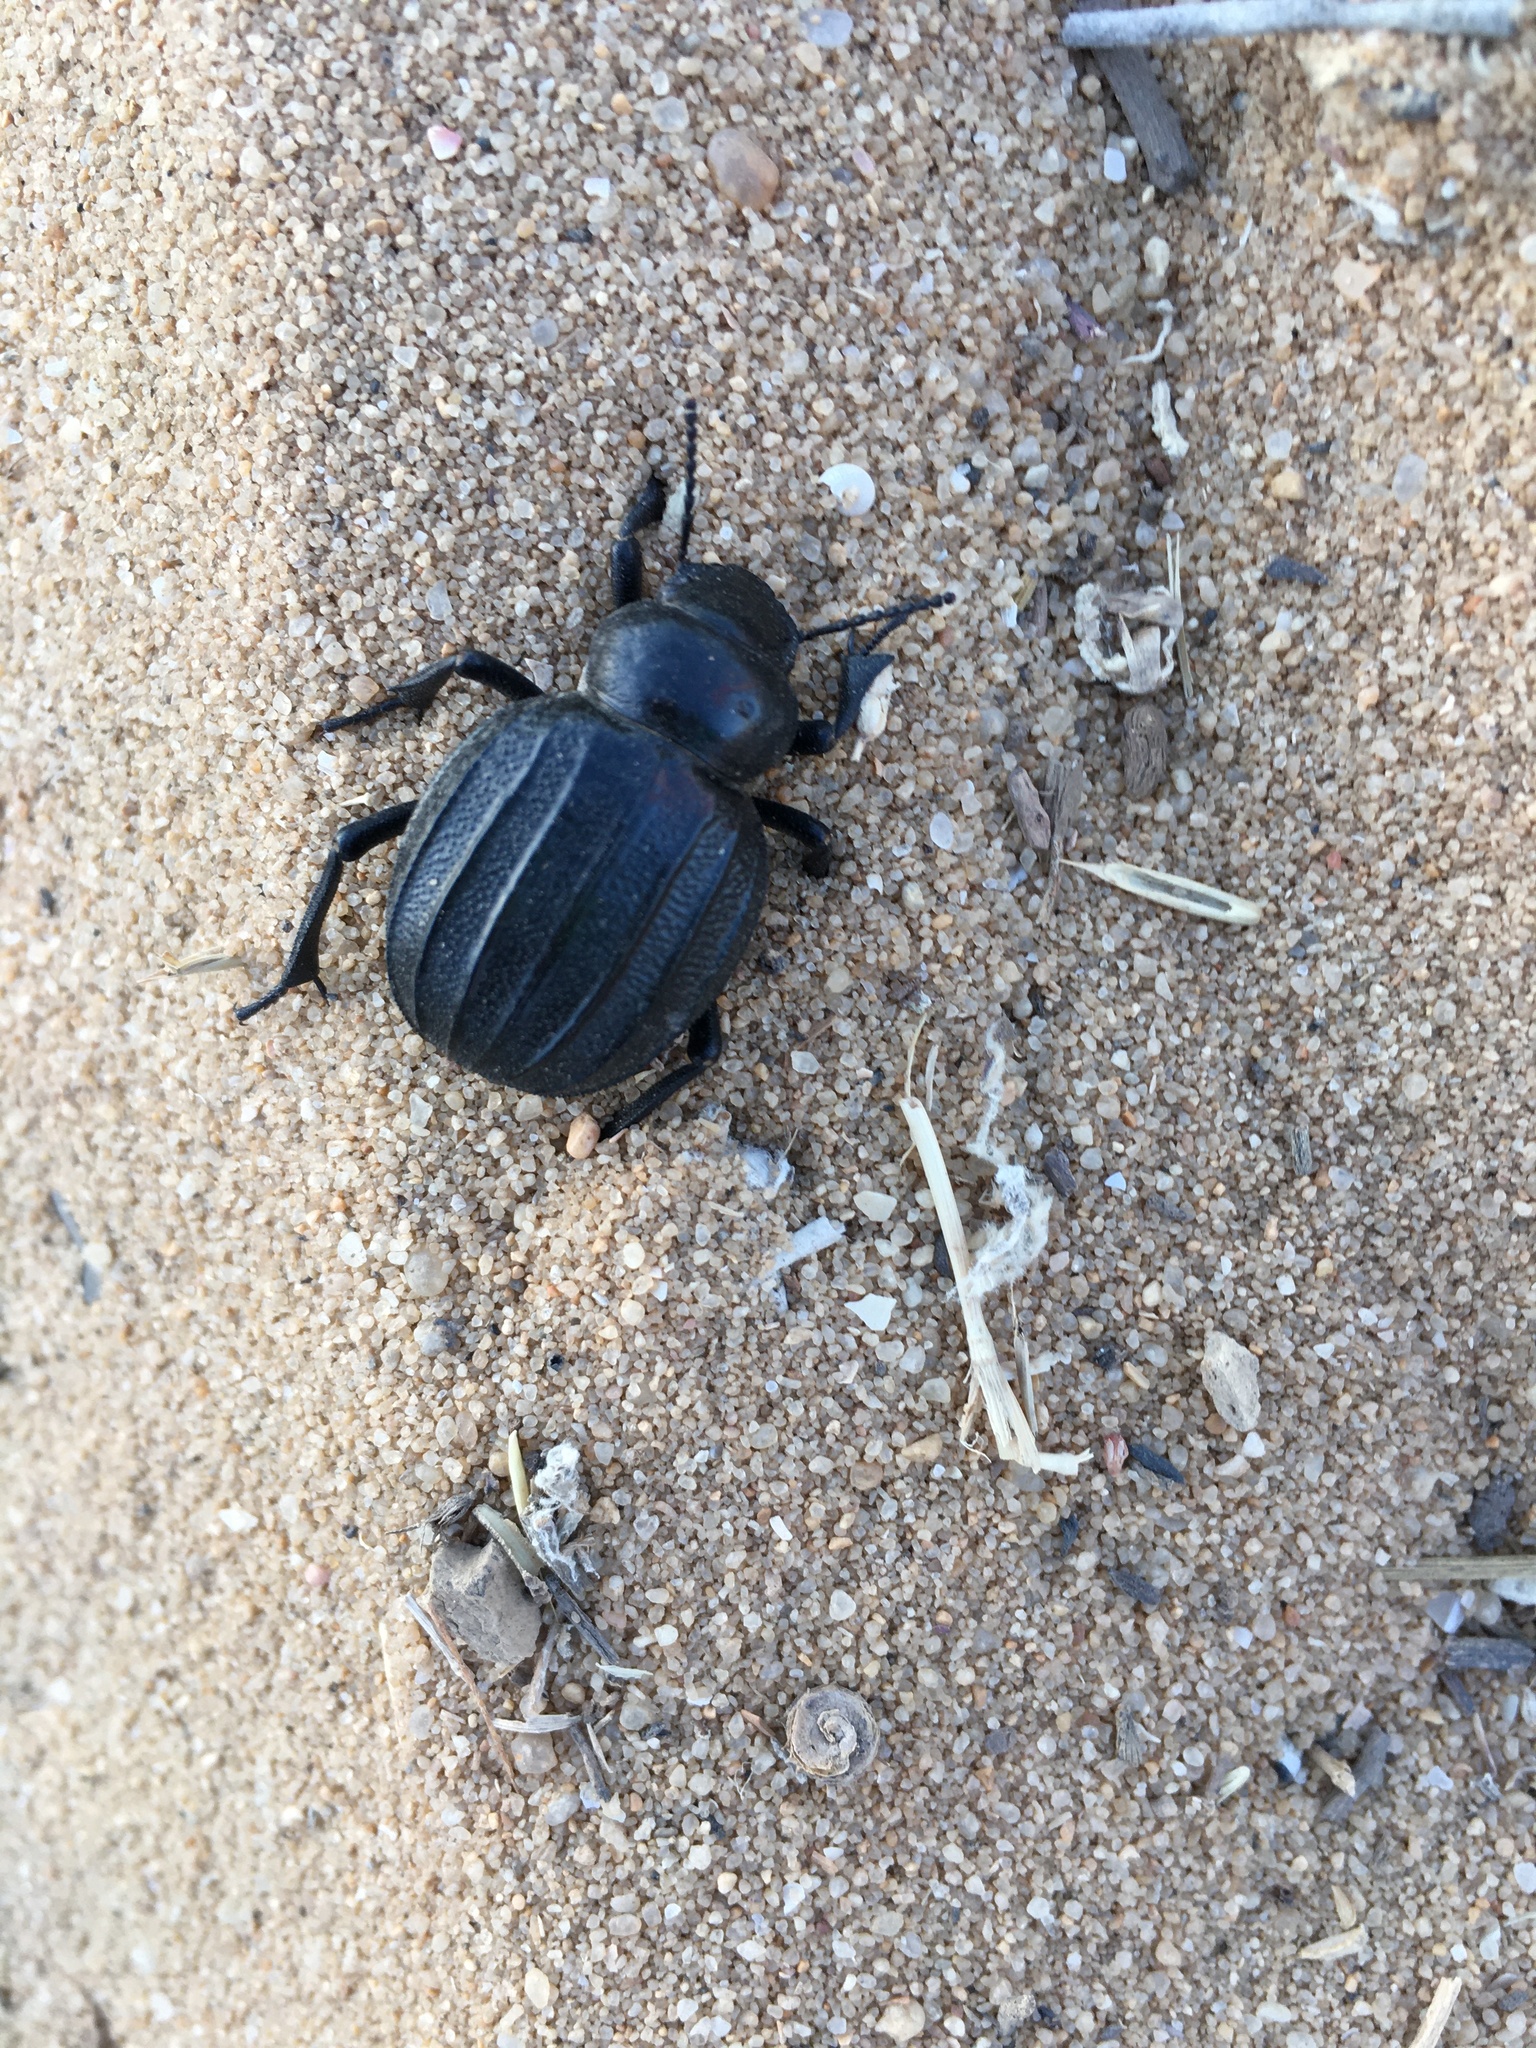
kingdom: Animalia
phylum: Arthropoda
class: Insecta
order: Coleoptera
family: Tenebrionidae
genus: Pimelia
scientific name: Pimelia costata
